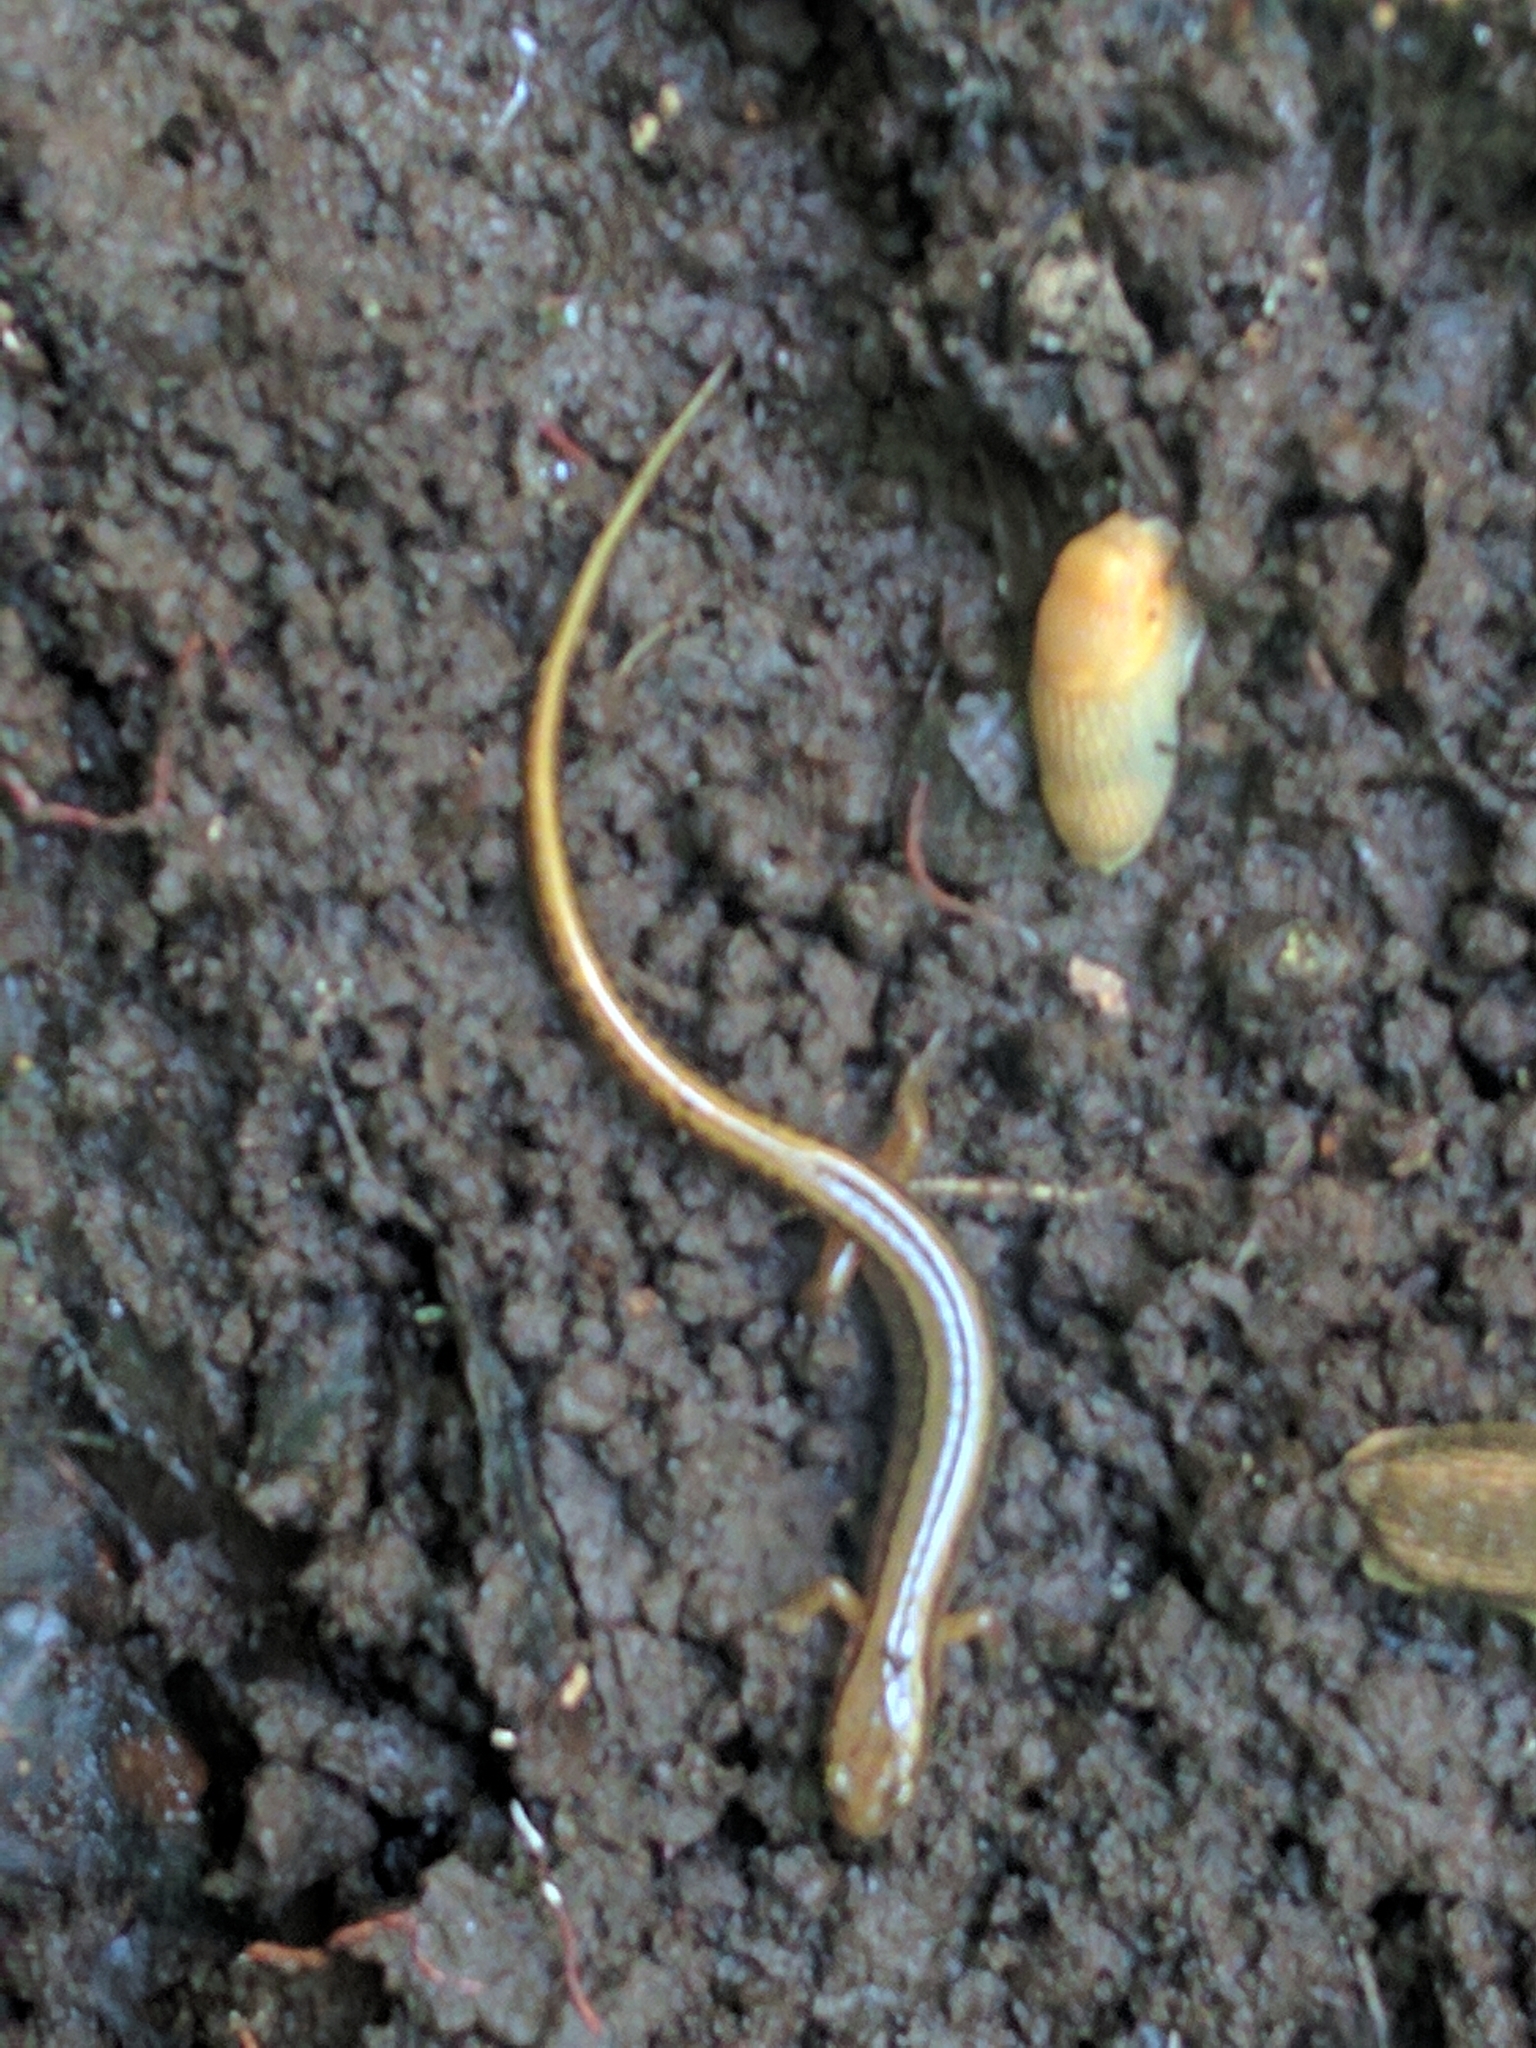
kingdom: Animalia
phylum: Chordata
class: Amphibia
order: Caudata
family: Plethodontidae
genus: Eurycea
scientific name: Eurycea bislineata
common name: Northern two-lined salamander
